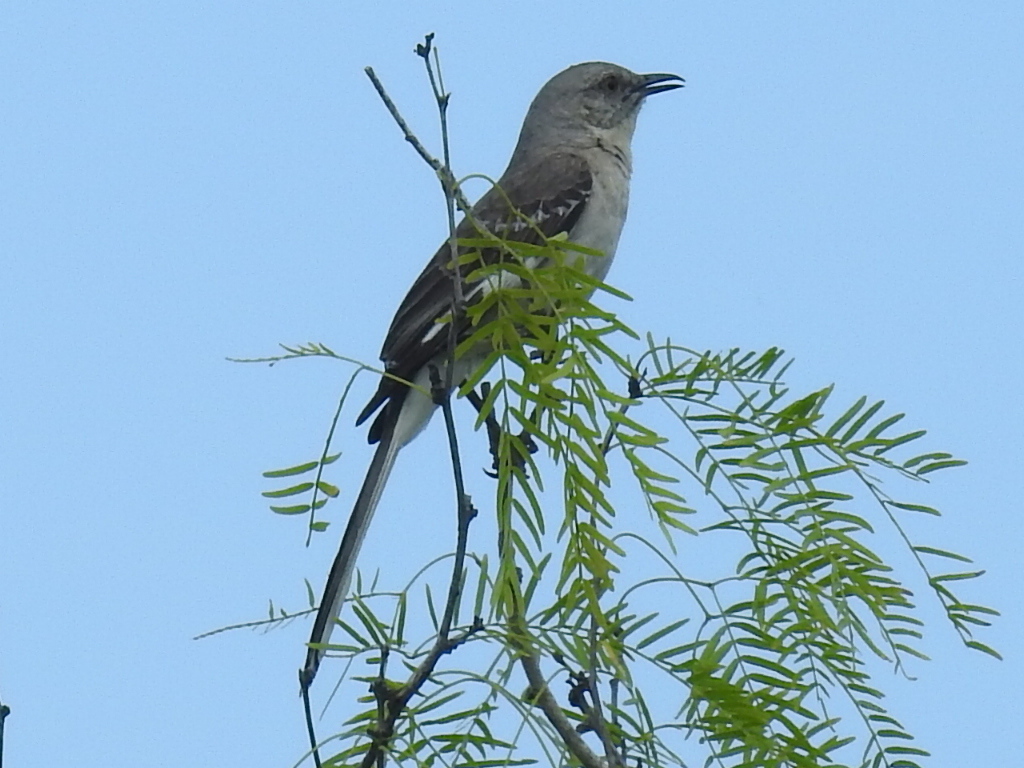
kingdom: Animalia
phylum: Chordata
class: Aves
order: Passeriformes
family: Mimidae
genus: Mimus
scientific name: Mimus polyglottos
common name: Northern mockingbird
